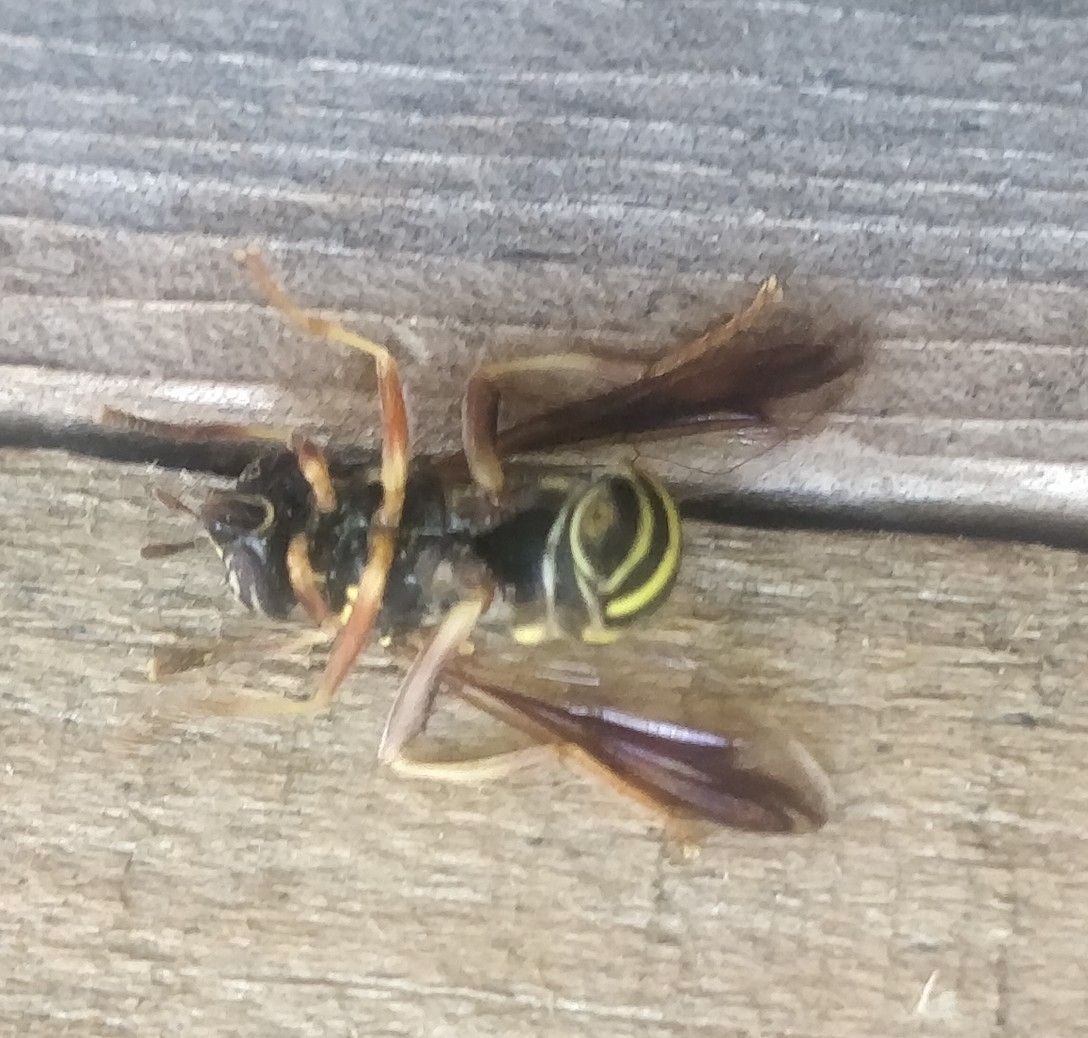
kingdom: Animalia
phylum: Arthropoda
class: Insecta
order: Diptera
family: Syrphidae
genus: Spilomyia
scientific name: Spilomyia sayi
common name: Four-lined hornet fly
